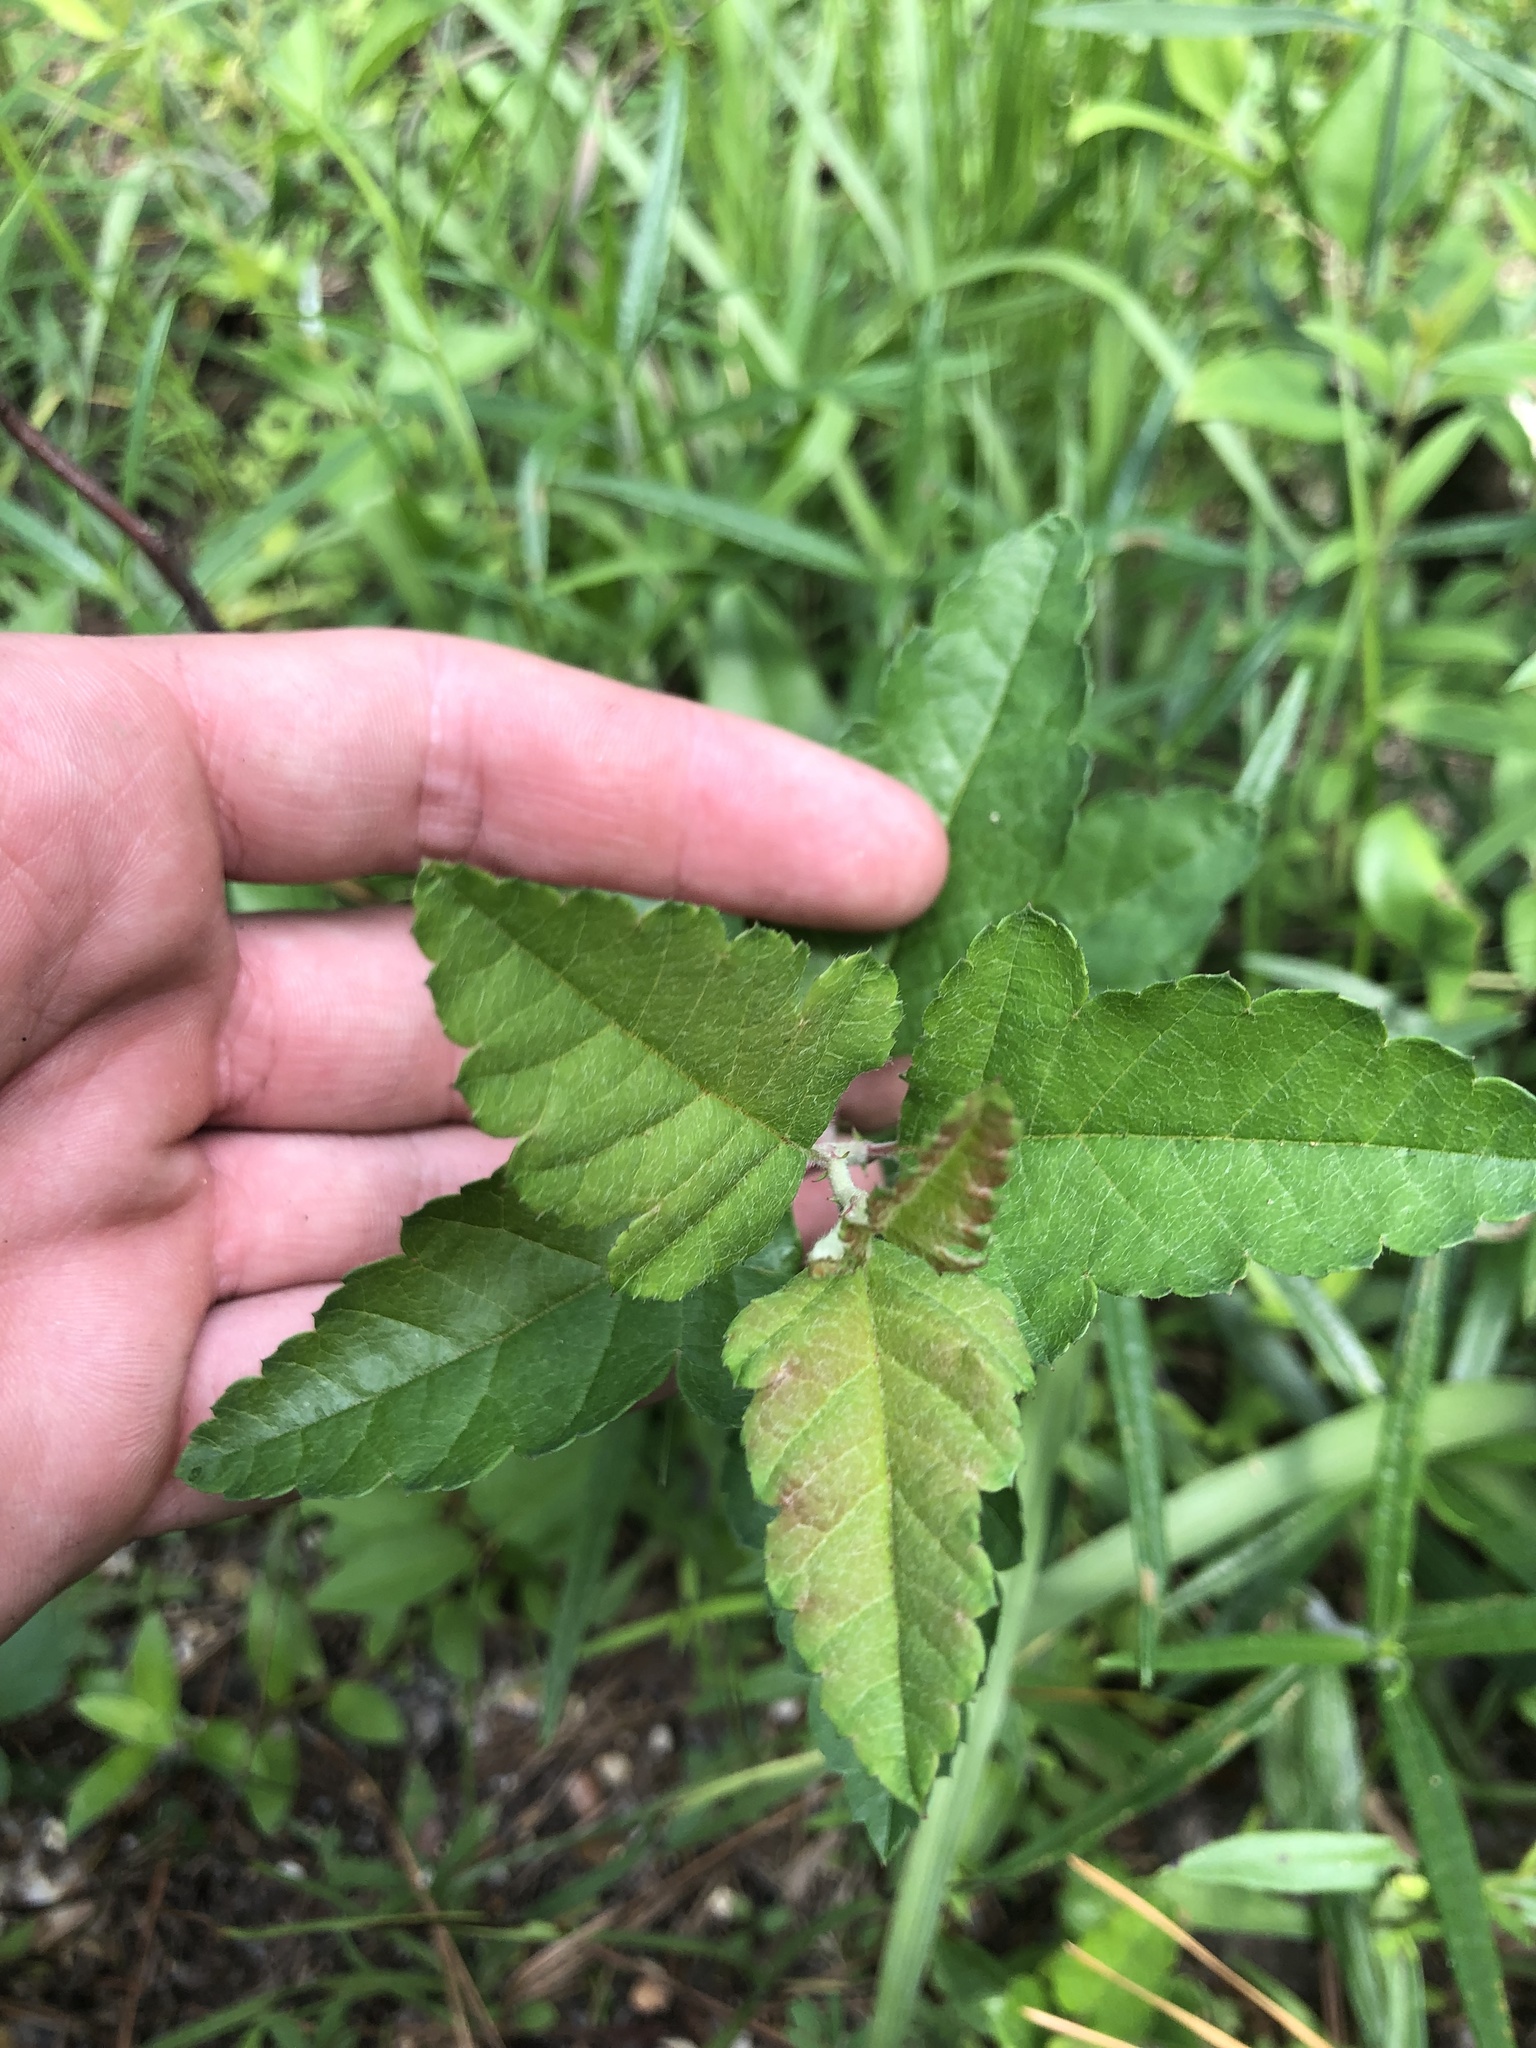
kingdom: Plantae
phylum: Tracheophyta
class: Magnoliopsida
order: Rosales
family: Rosaceae
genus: Malus
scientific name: Malus ioensis
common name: Iowa crab apple
